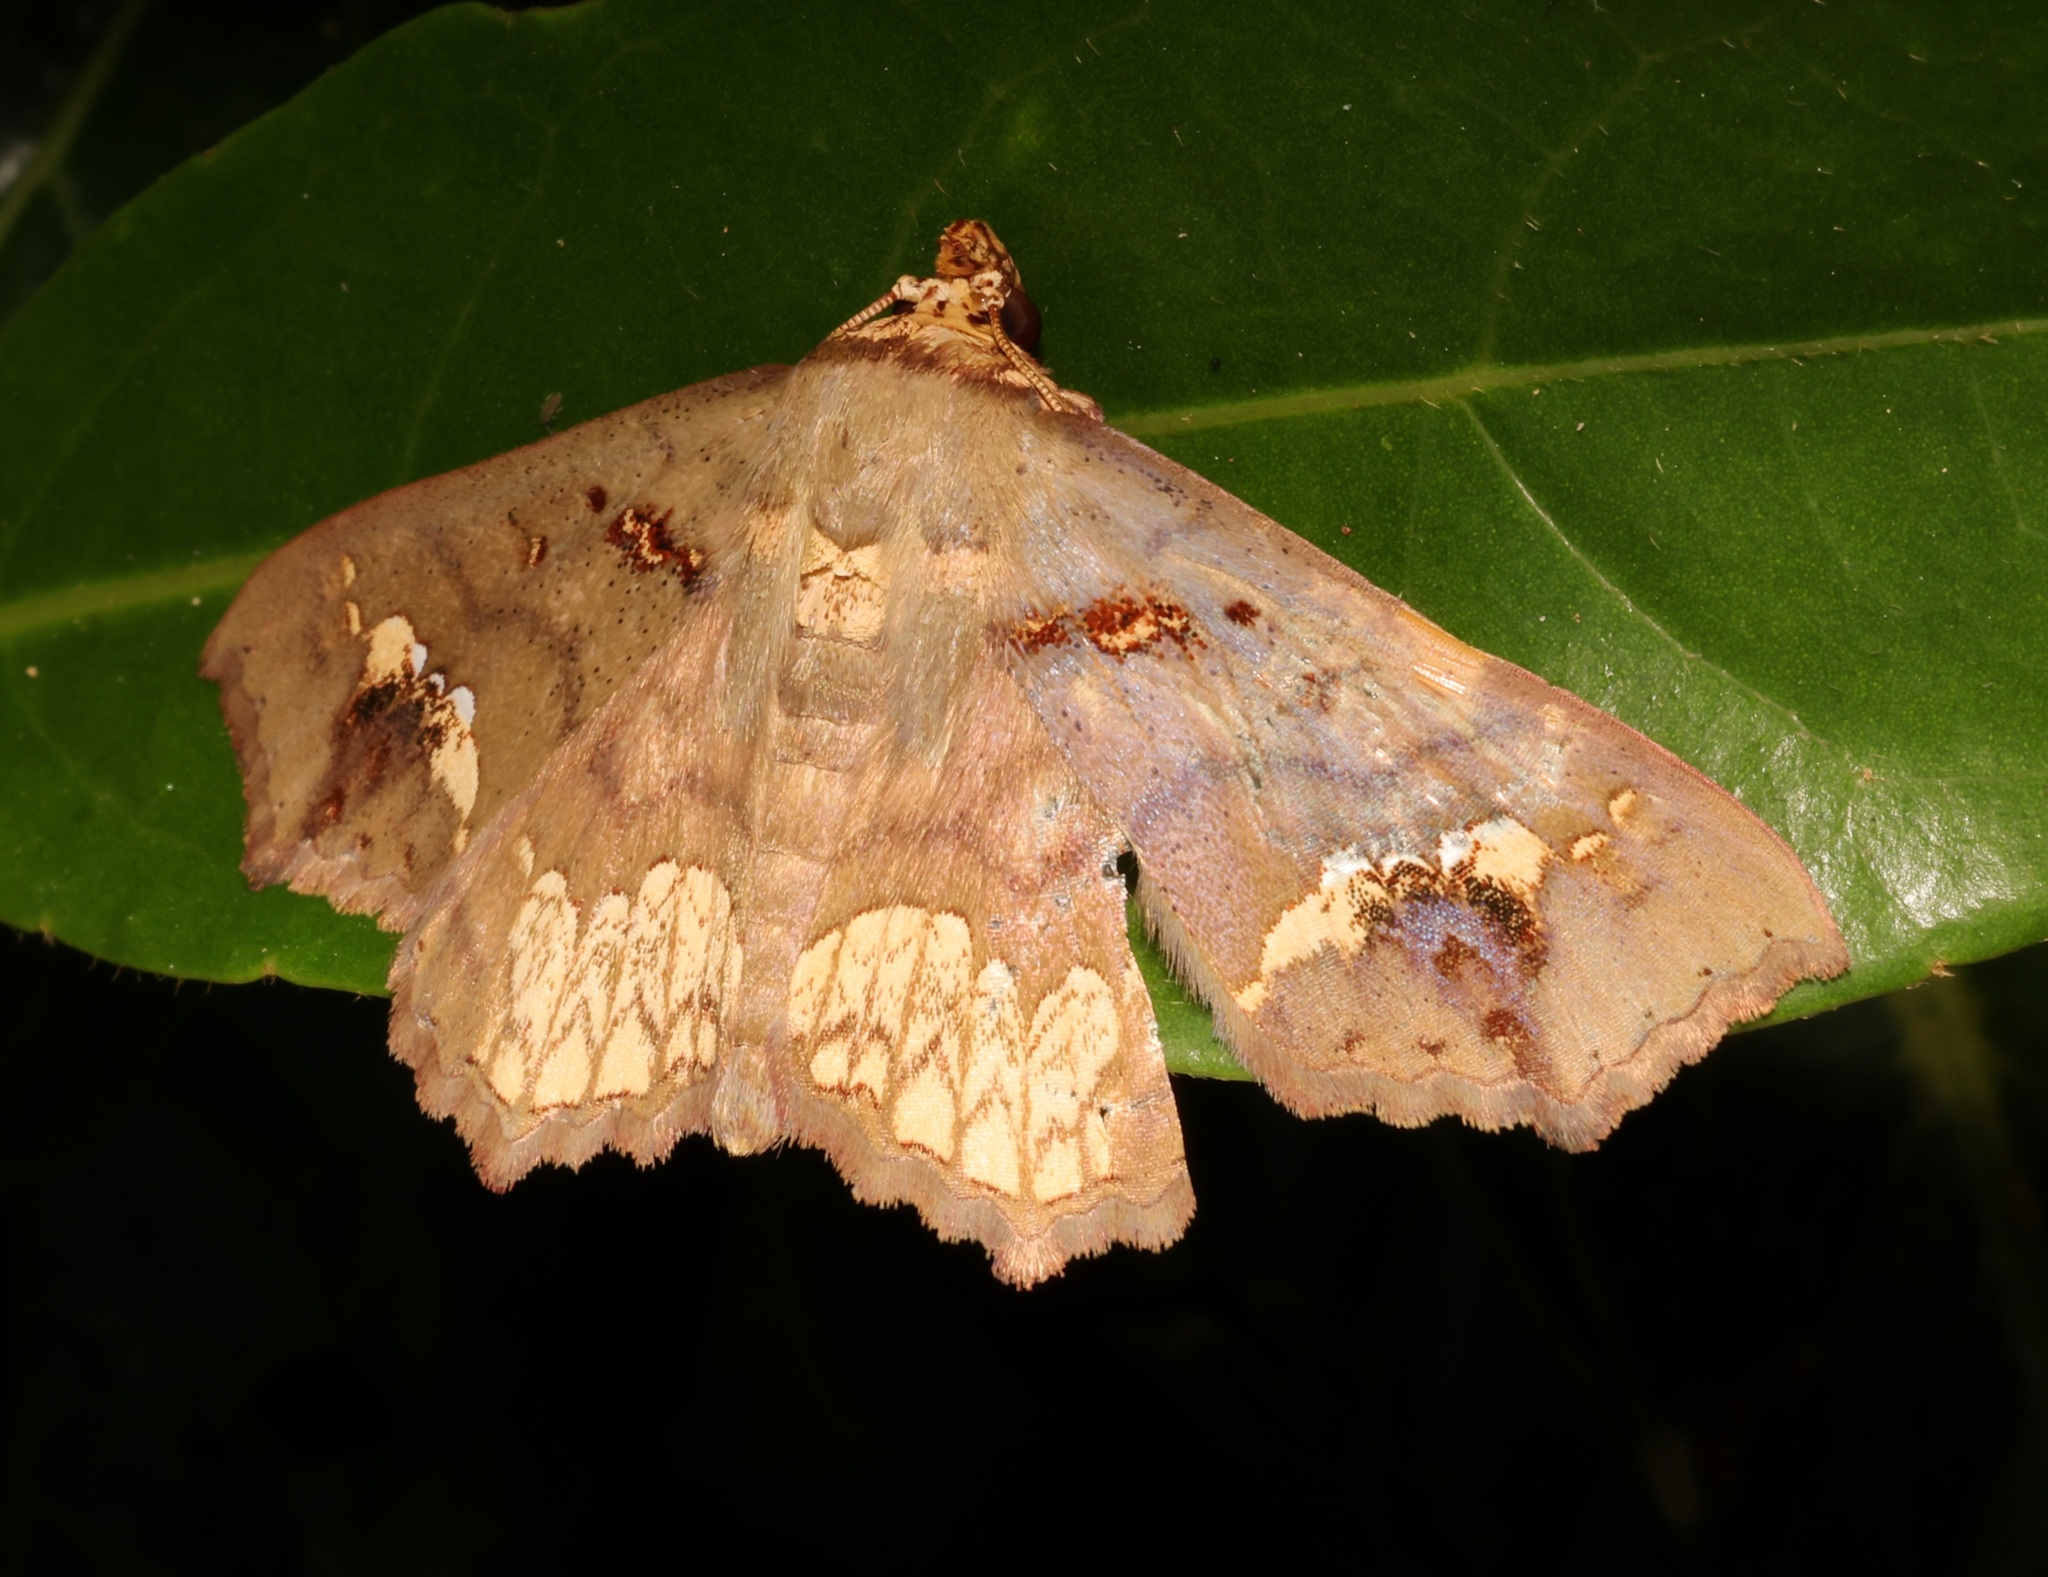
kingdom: Animalia
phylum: Arthropoda
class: Insecta
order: Lepidoptera
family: Erebidae
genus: Lopharthrum
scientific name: Lopharthrum comprimens
